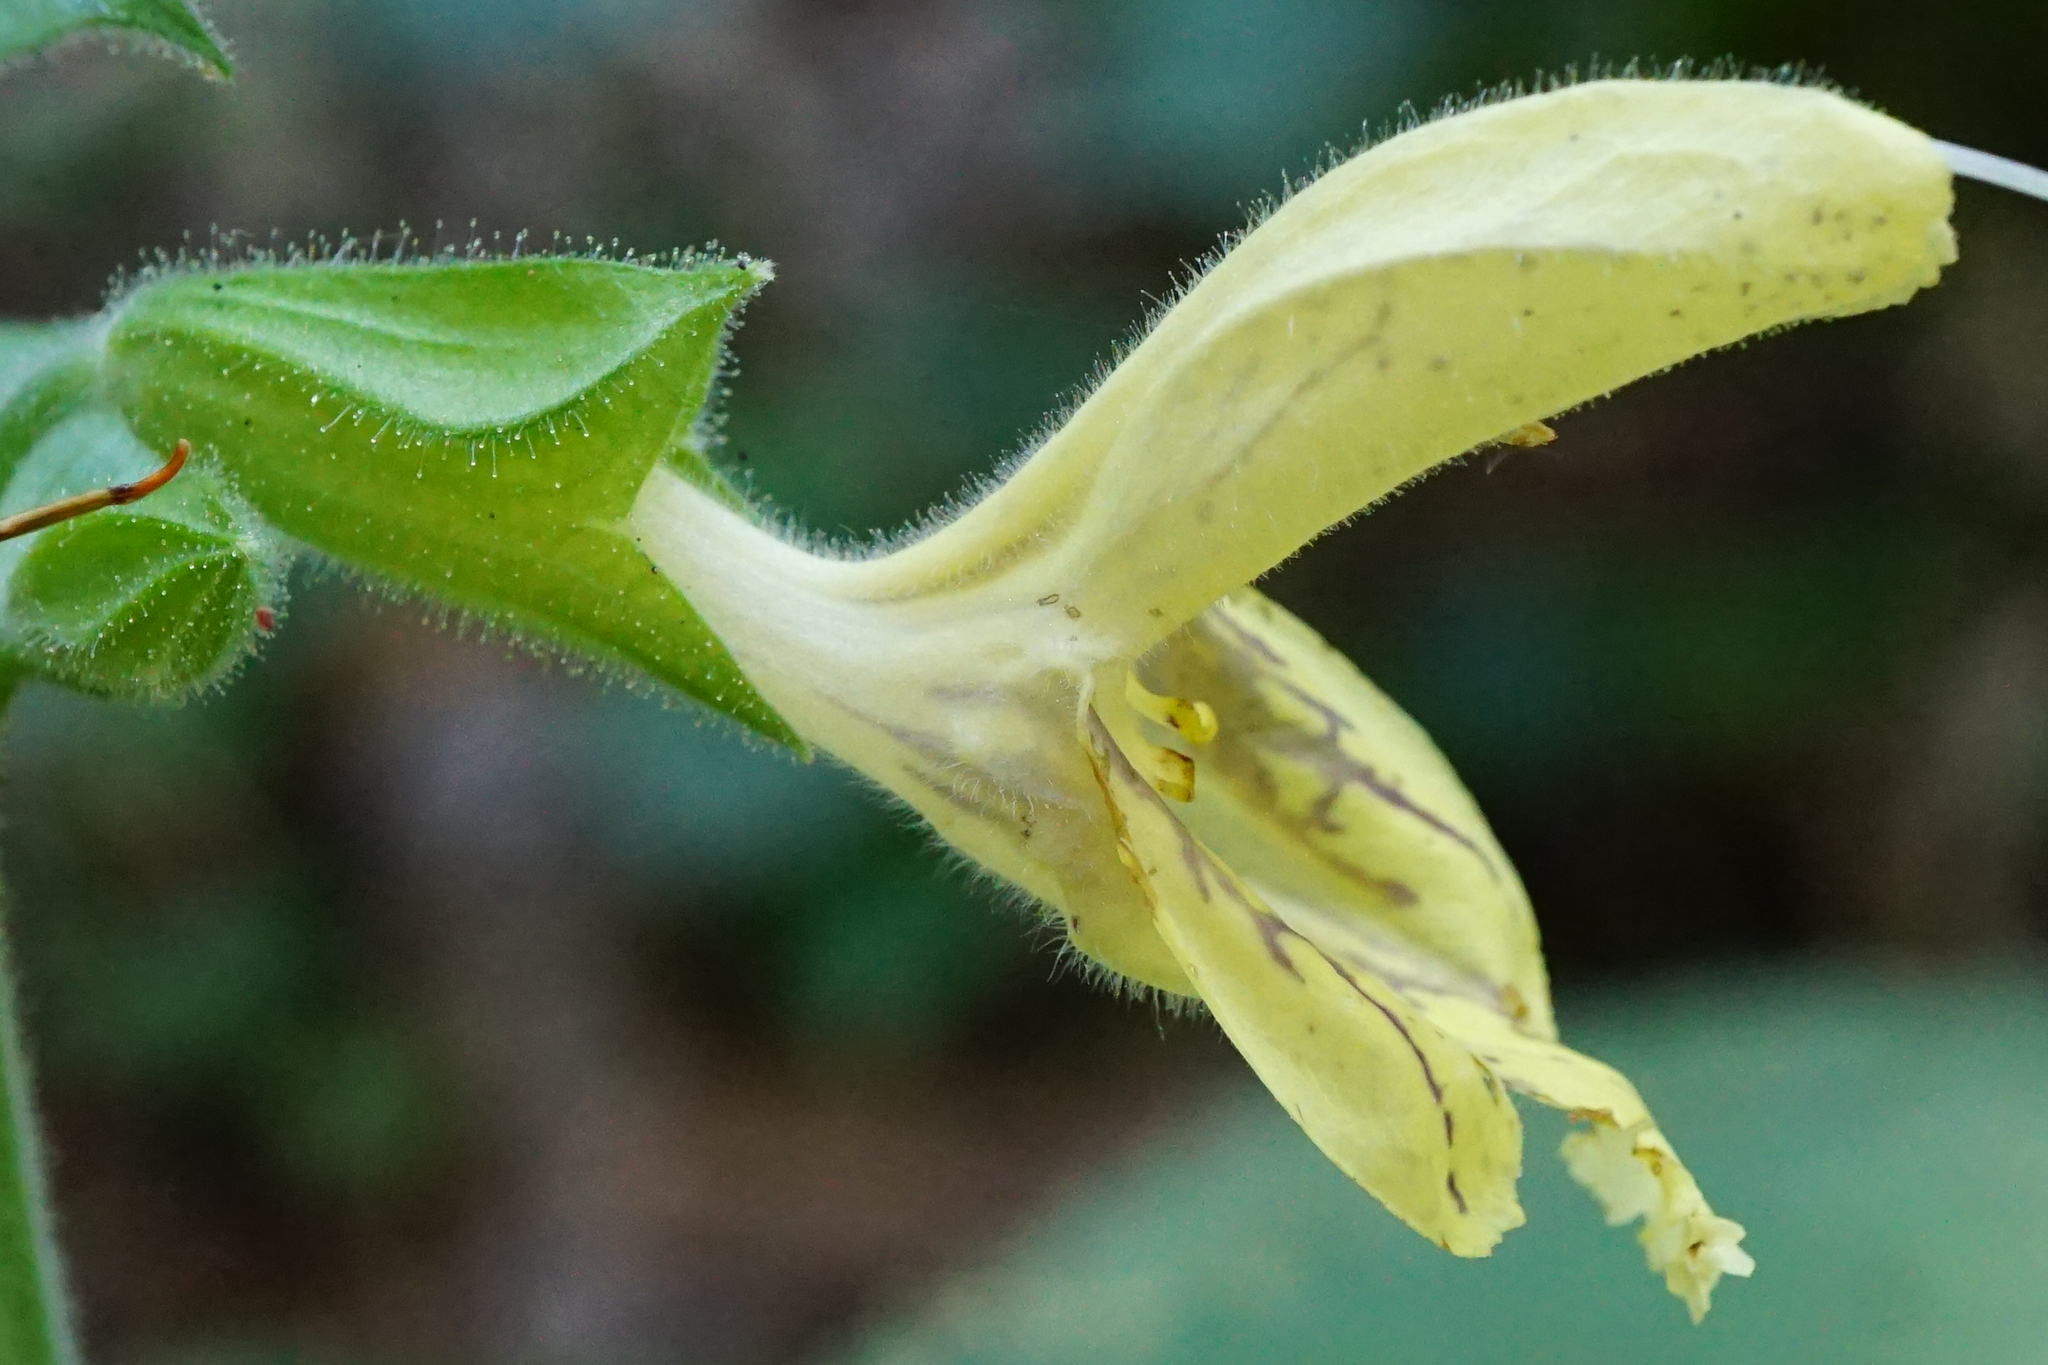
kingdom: Plantae
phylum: Tracheophyta
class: Magnoliopsida
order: Lamiales
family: Lamiaceae
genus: Salvia
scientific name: Salvia glutinosa
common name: Sticky clary
